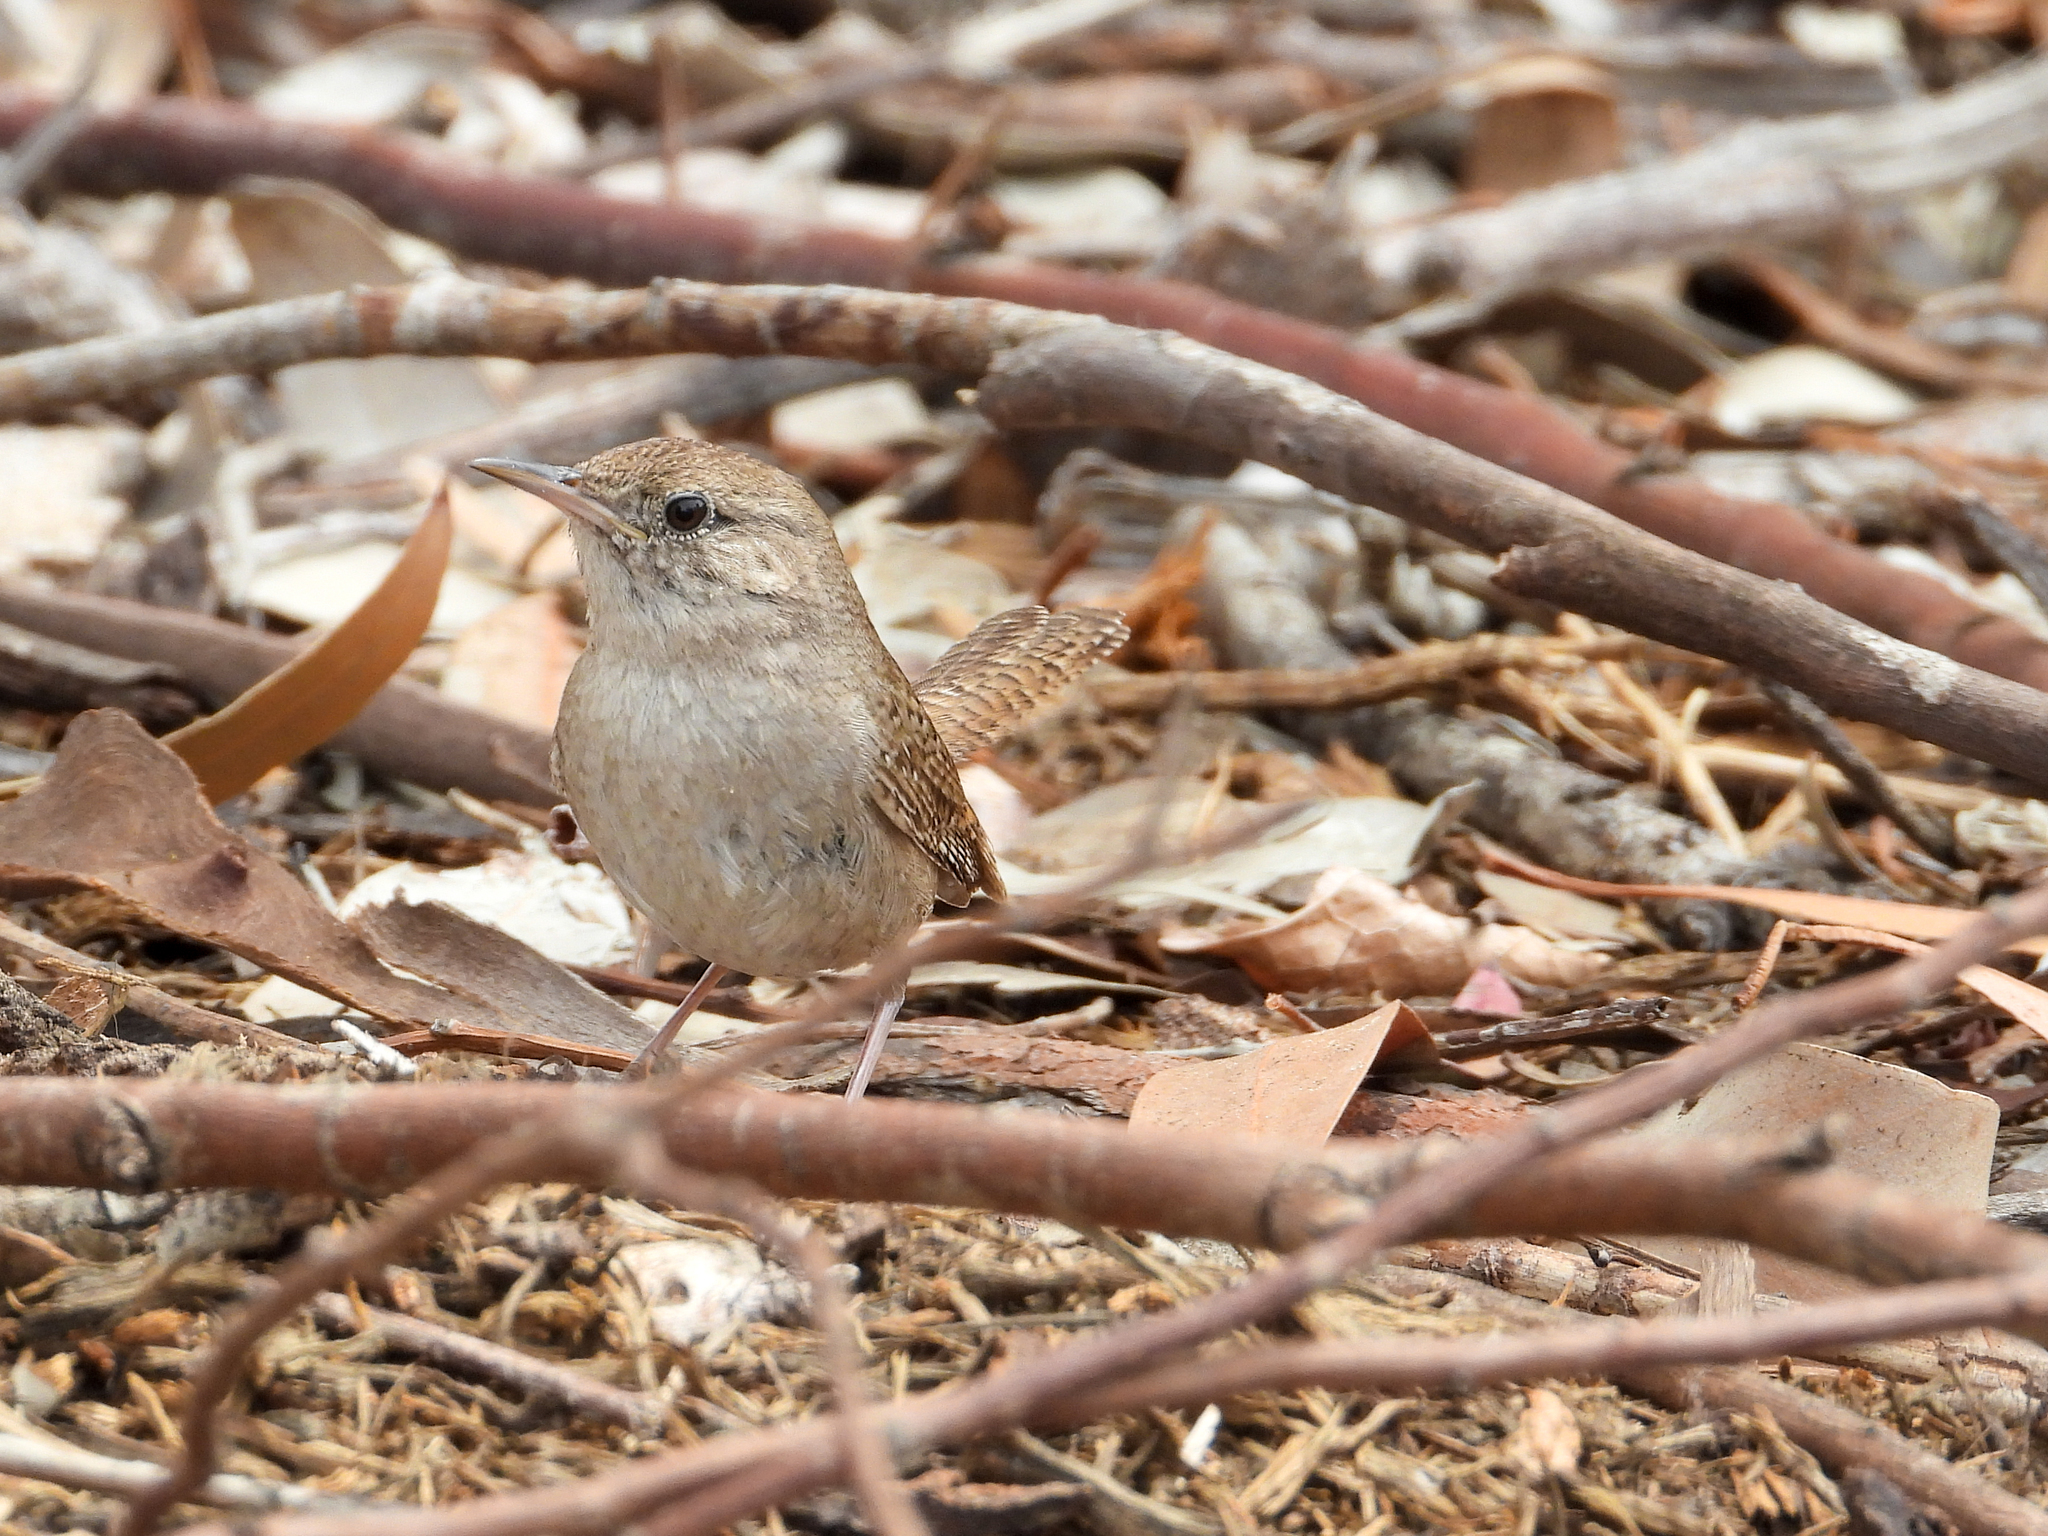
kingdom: Animalia
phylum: Chordata
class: Aves
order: Passeriformes
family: Troglodytidae
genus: Troglodytes
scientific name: Troglodytes aedon
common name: House wren
